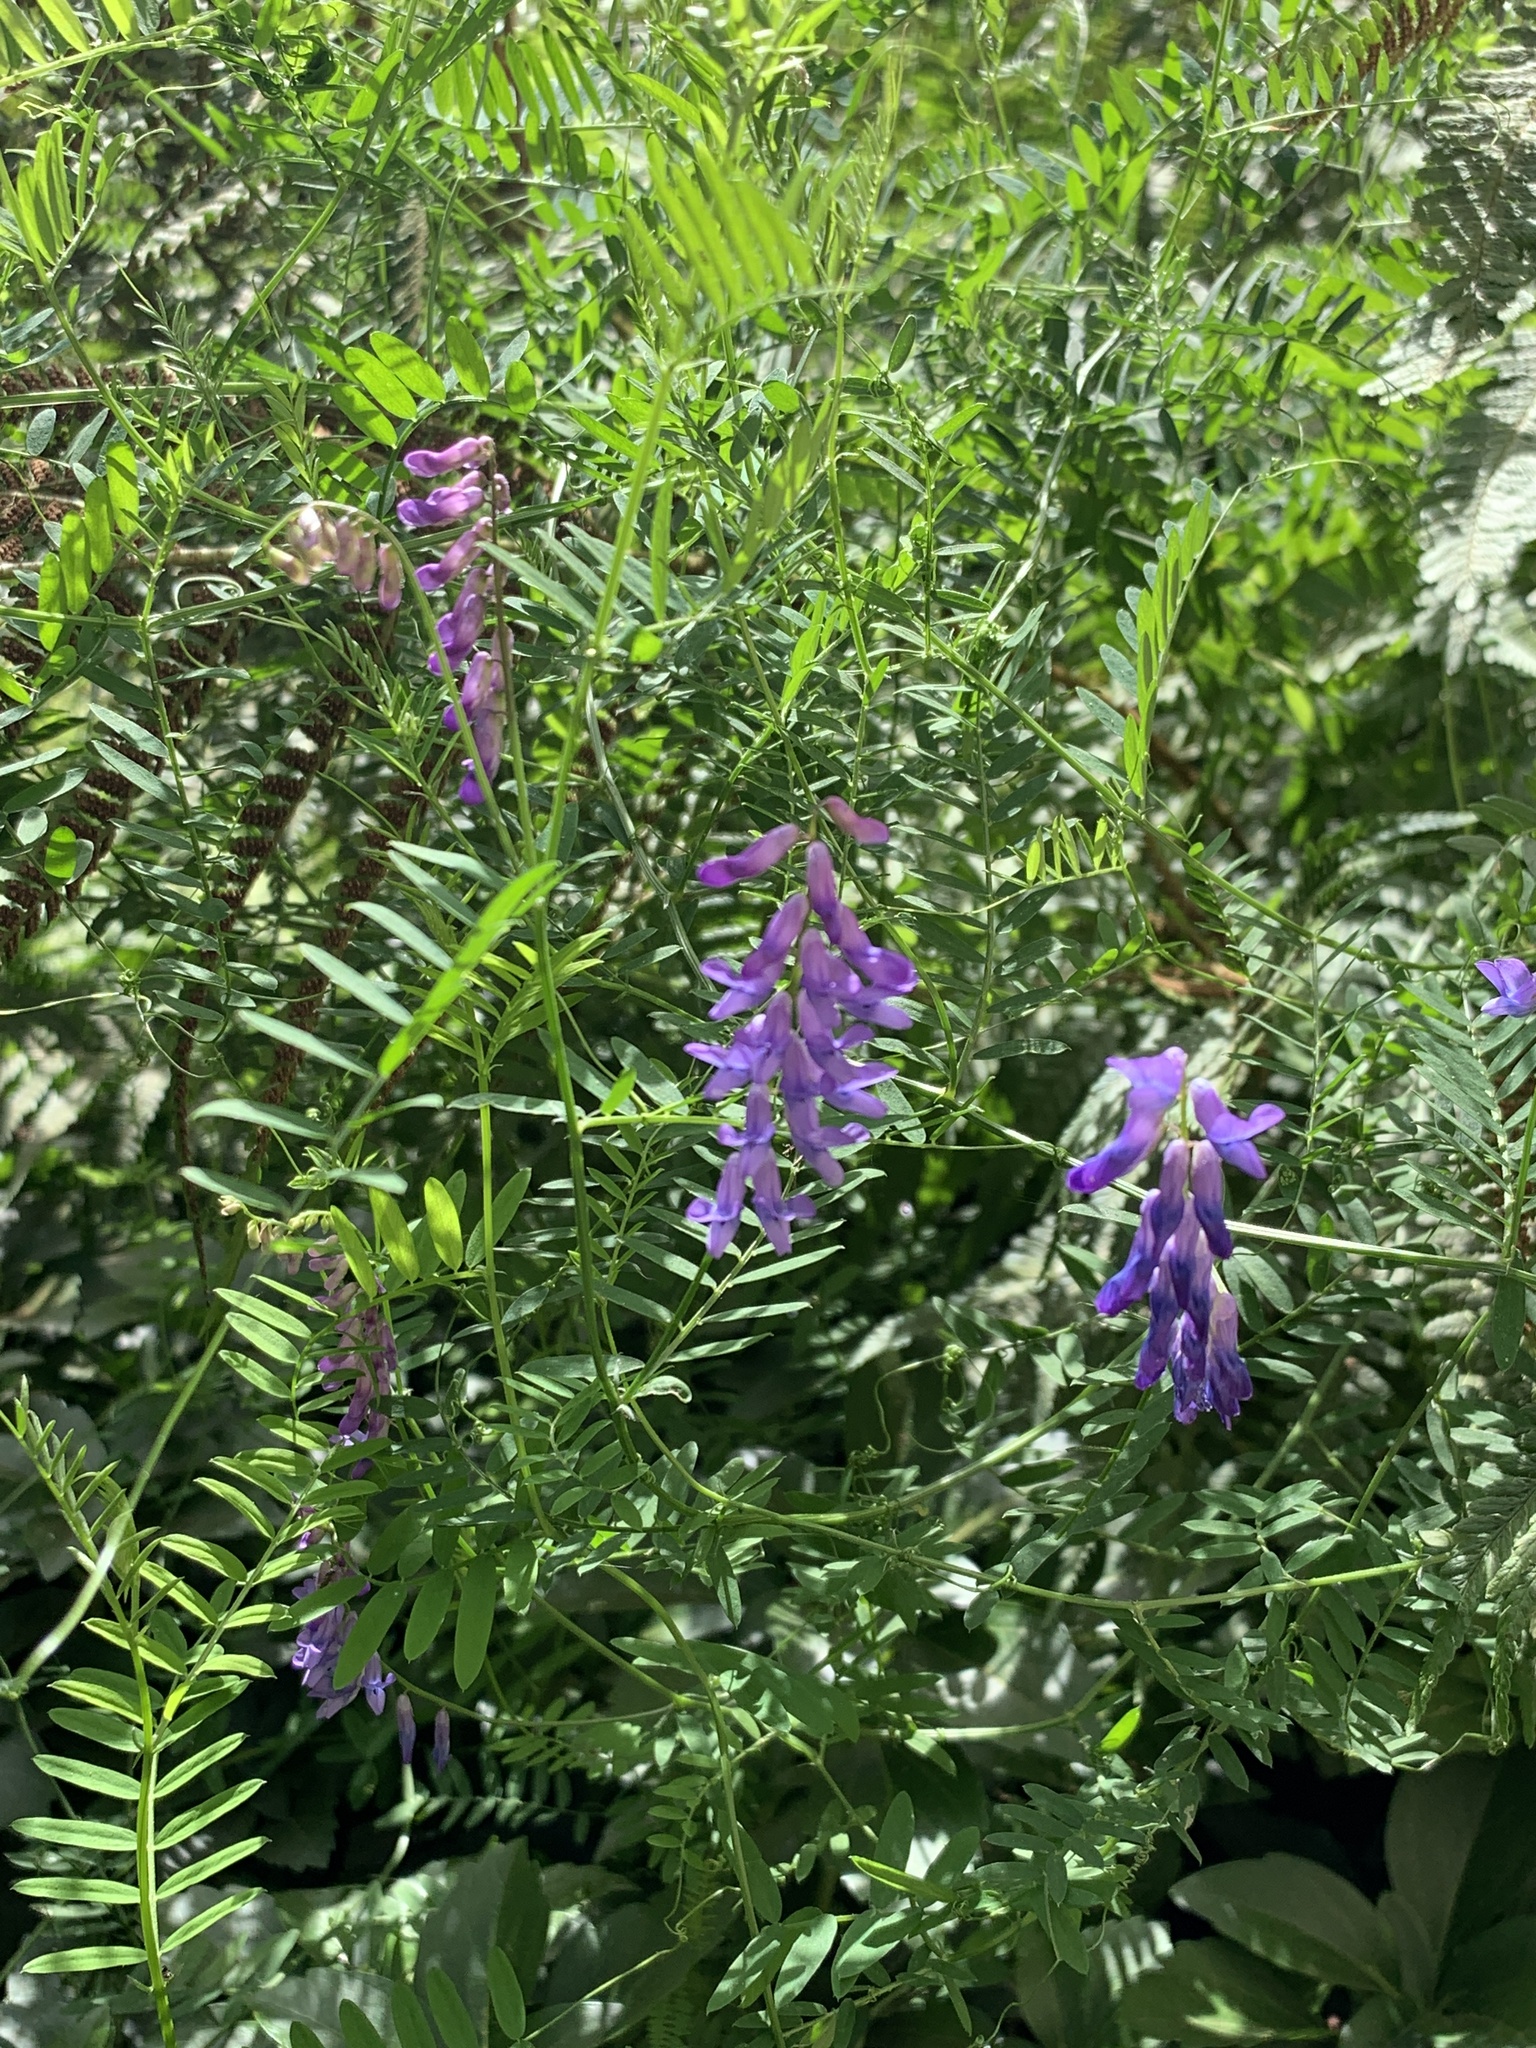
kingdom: Plantae
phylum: Tracheophyta
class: Magnoliopsida
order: Fabales
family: Fabaceae
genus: Vicia
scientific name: Vicia cracca
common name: Bird vetch
